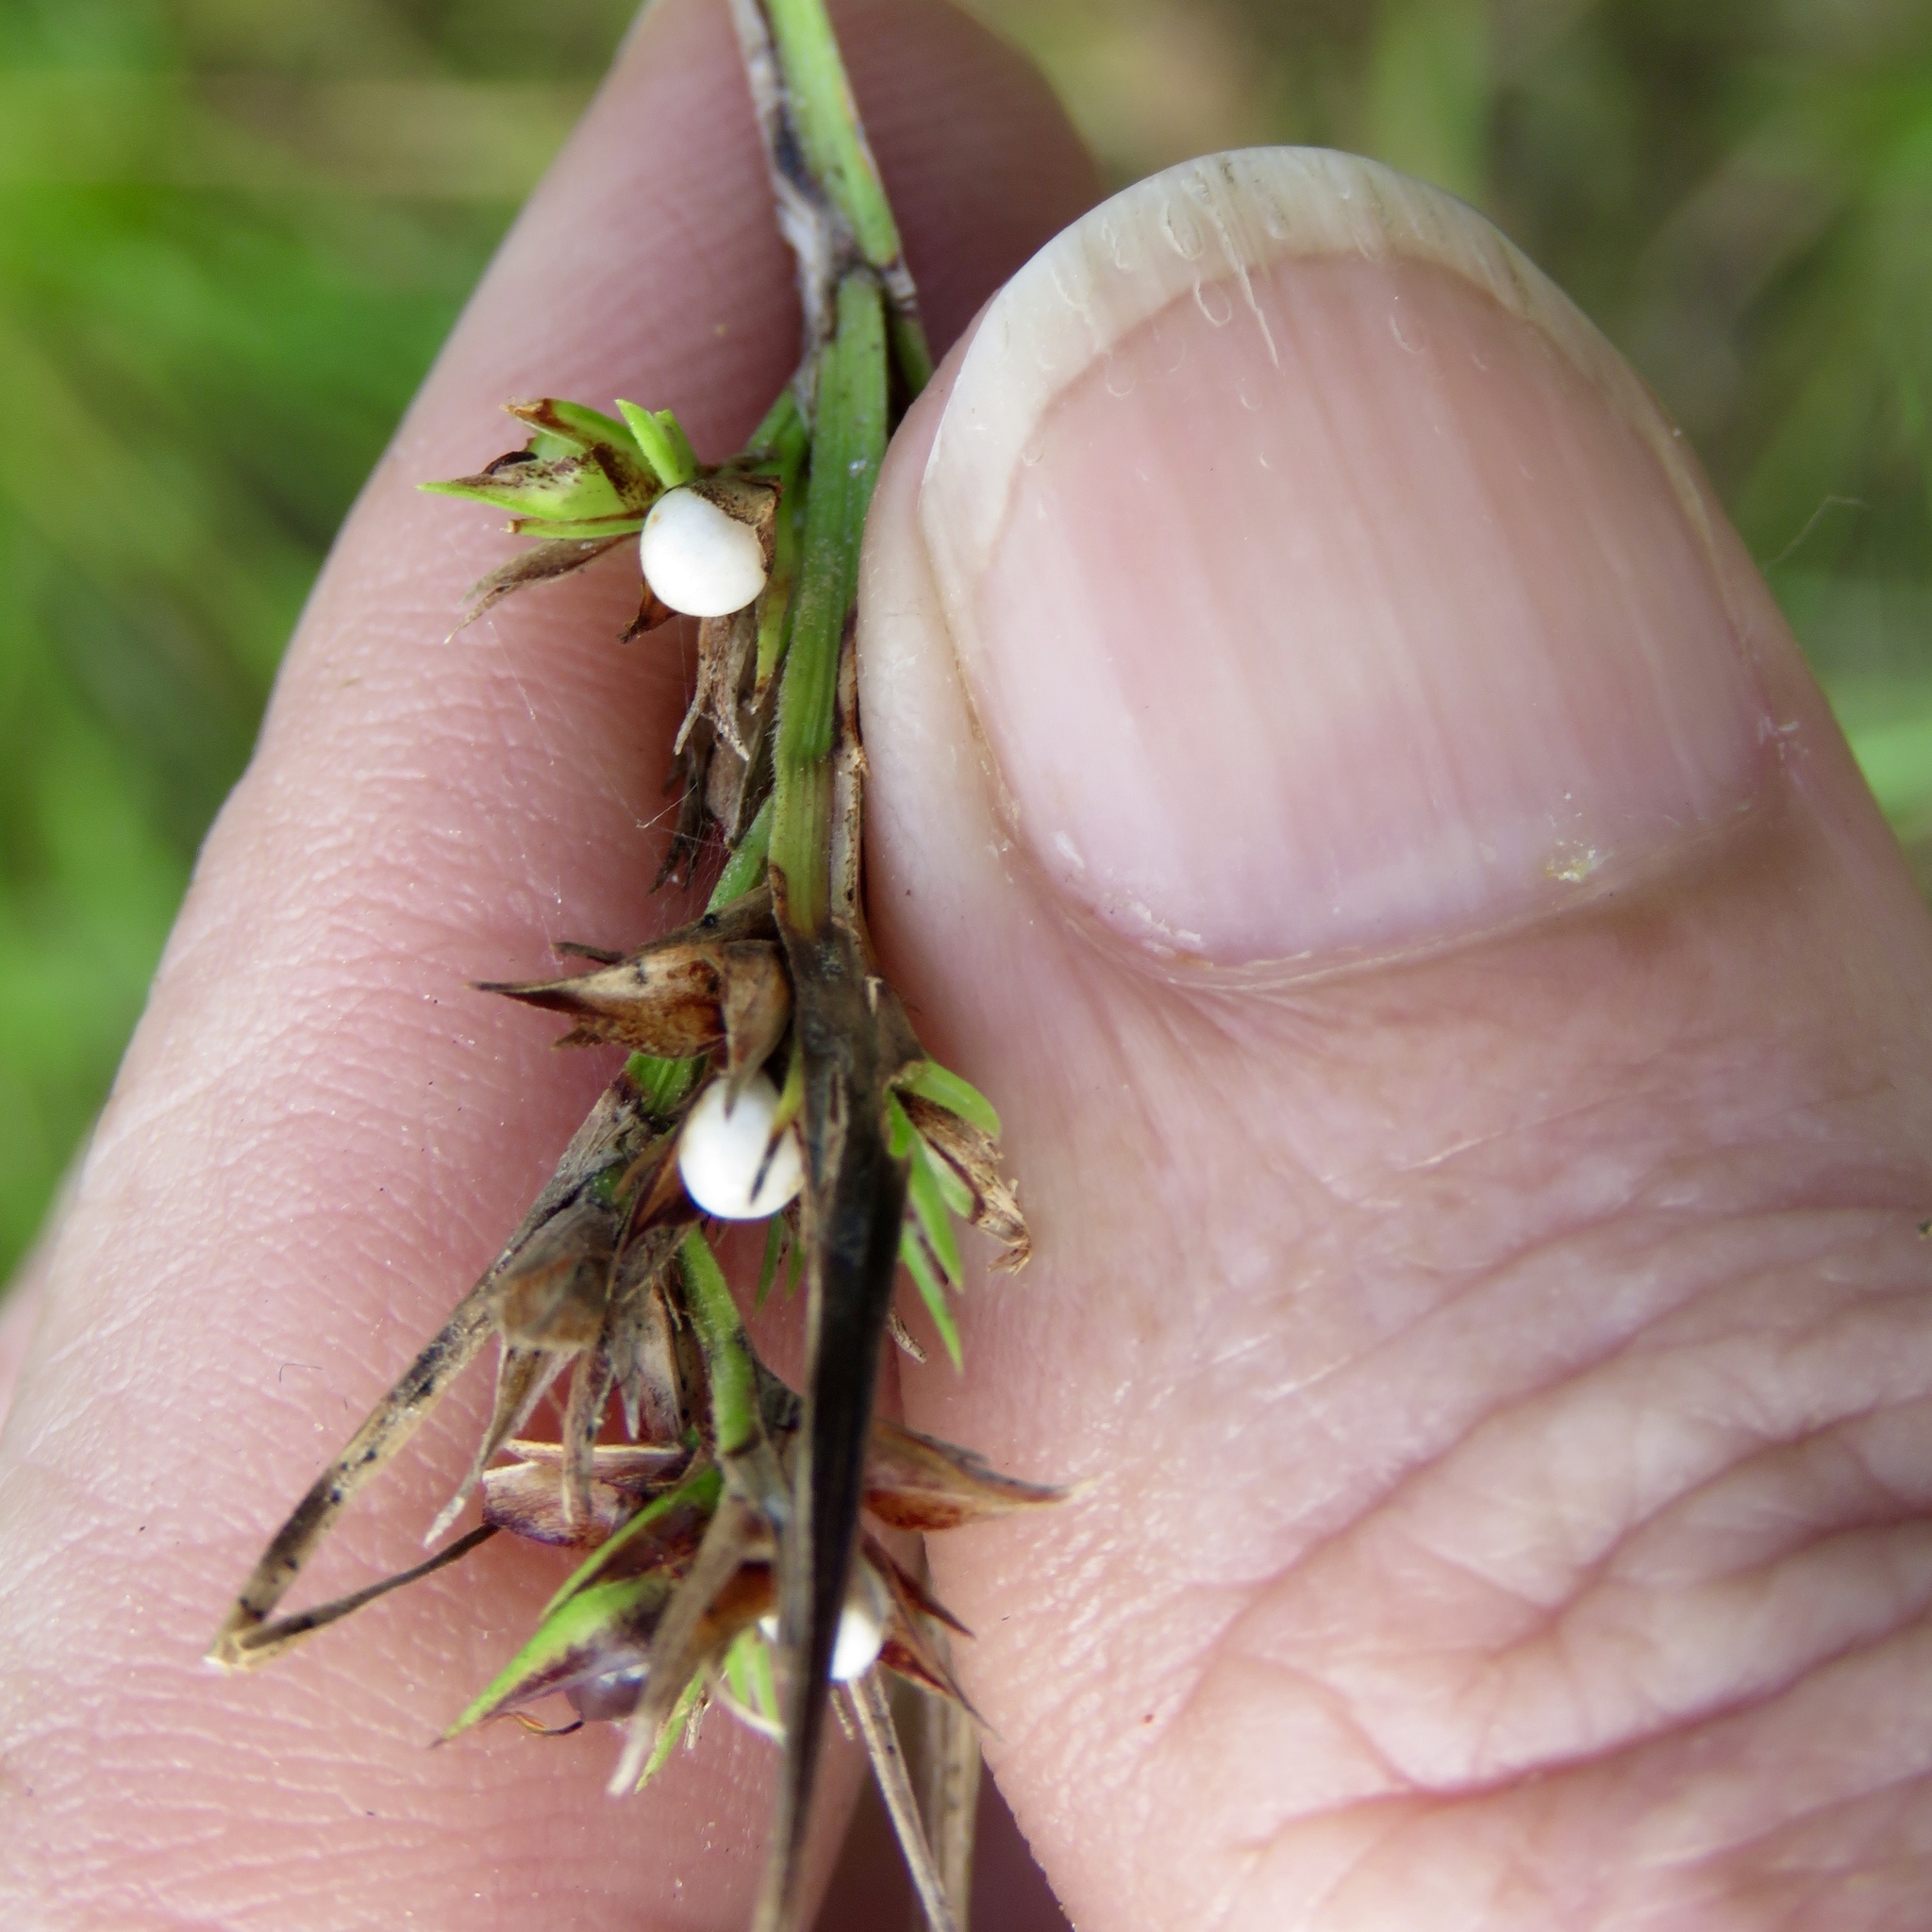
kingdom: Plantae
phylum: Tracheophyta
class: Liliopsida
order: Poales
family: Cyperaceae
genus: Scleria
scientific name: Scleria triglomerata
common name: Whip nutrush
